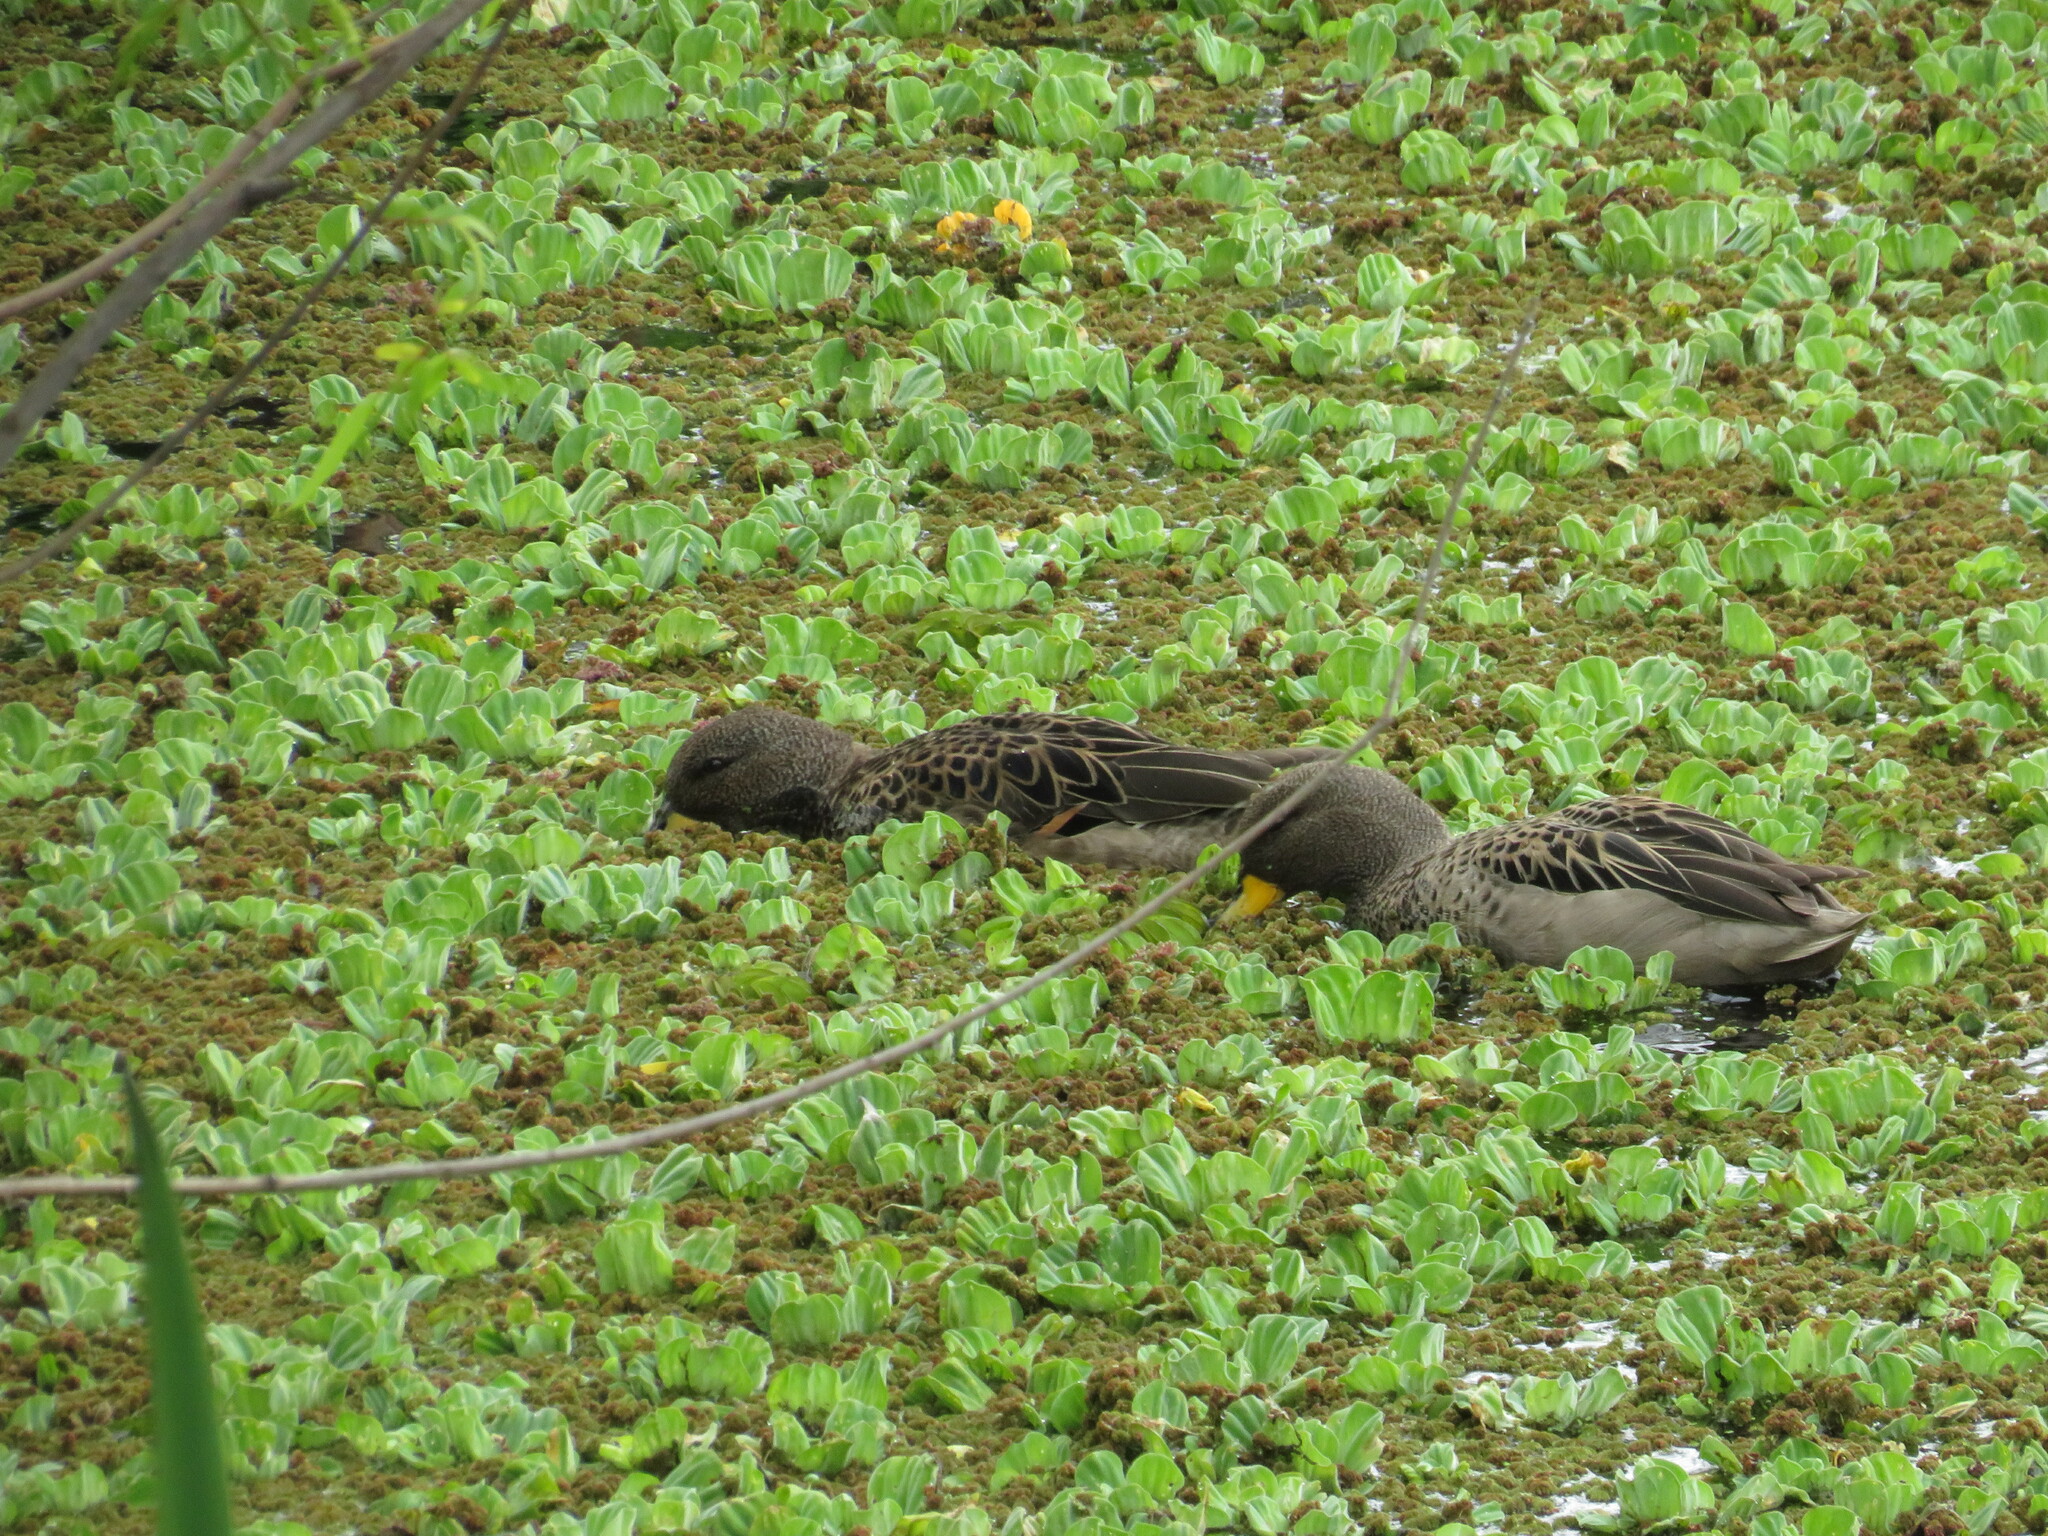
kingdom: Animalia
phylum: Chordata
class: Aves
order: Anseriformes
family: Anatidae
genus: Anas
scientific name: Anas flavirostris
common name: Yellow-billed teal
